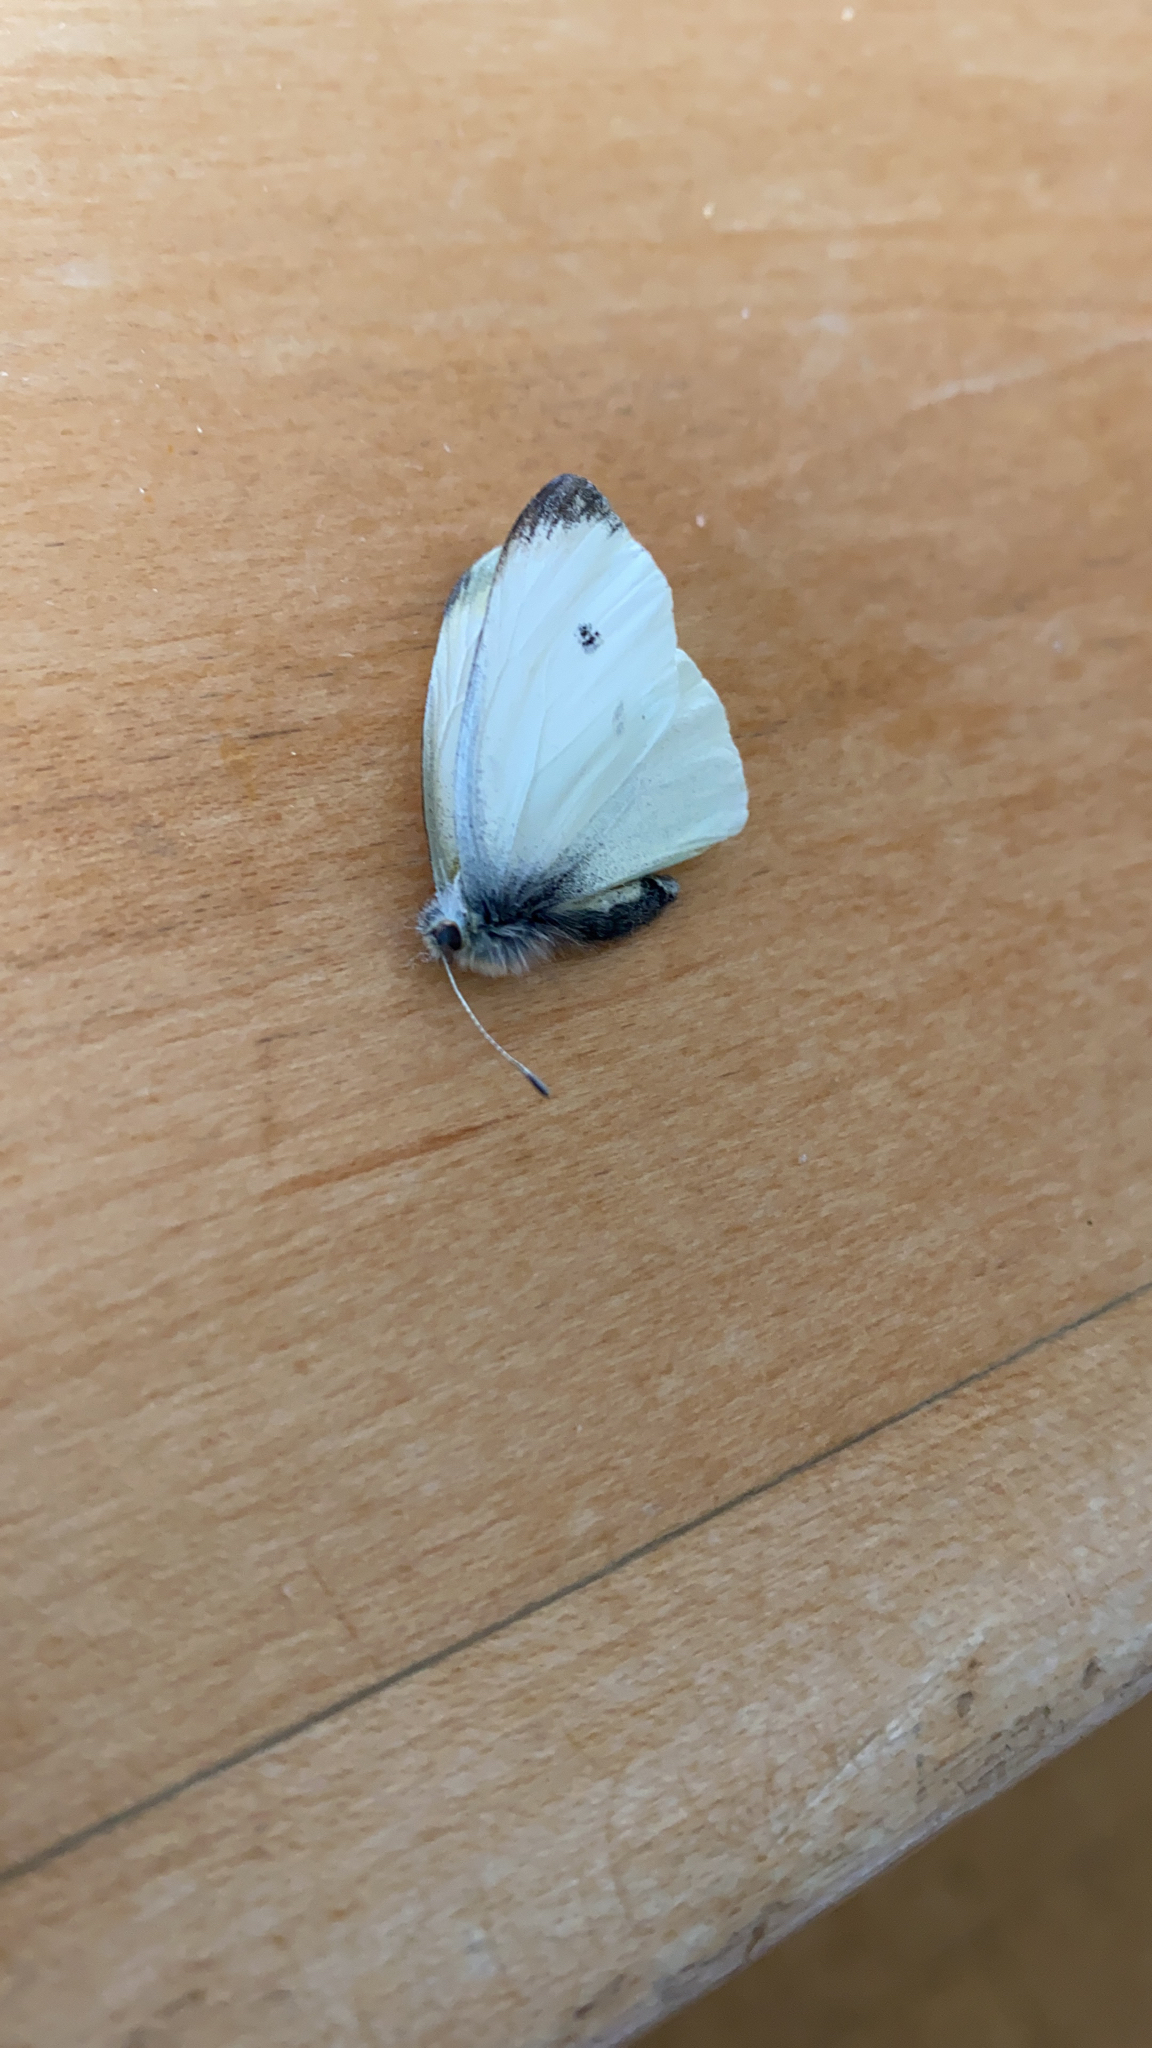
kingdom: Animalia
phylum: Arthropoda
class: Insecta
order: Lepidoptera
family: Pieridae
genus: Pieris
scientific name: Pieris rapae
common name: Small white
